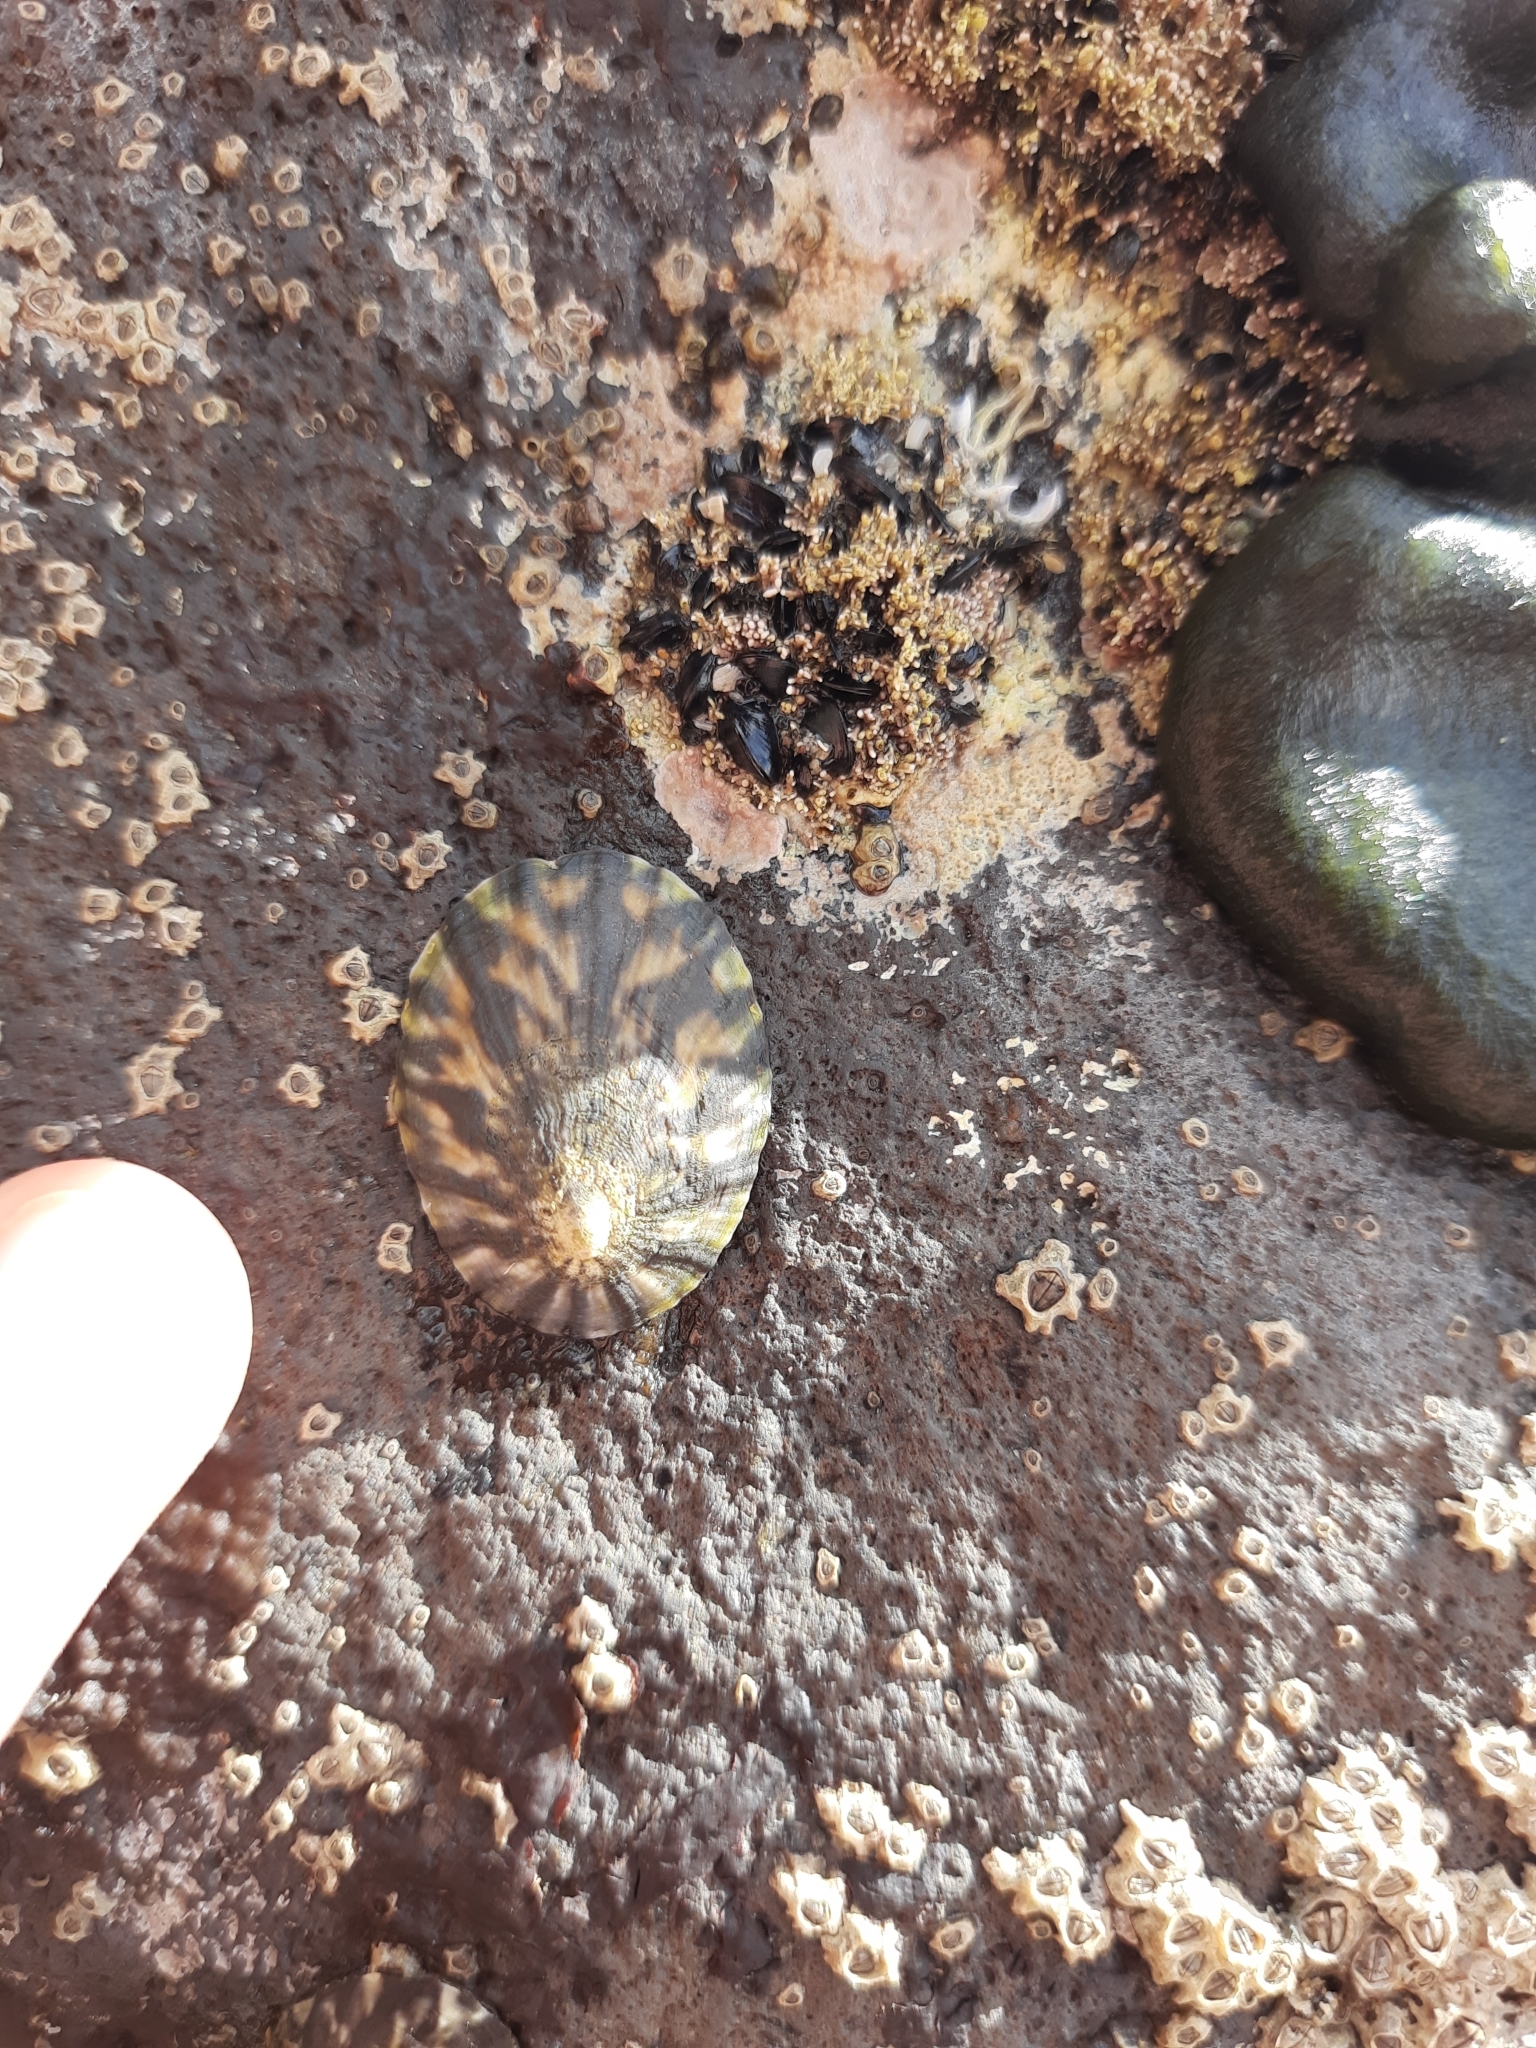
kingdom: Animalia
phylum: Mollusca
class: Gastropoda
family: Nacellidae
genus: Cellana
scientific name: Cellana radians
